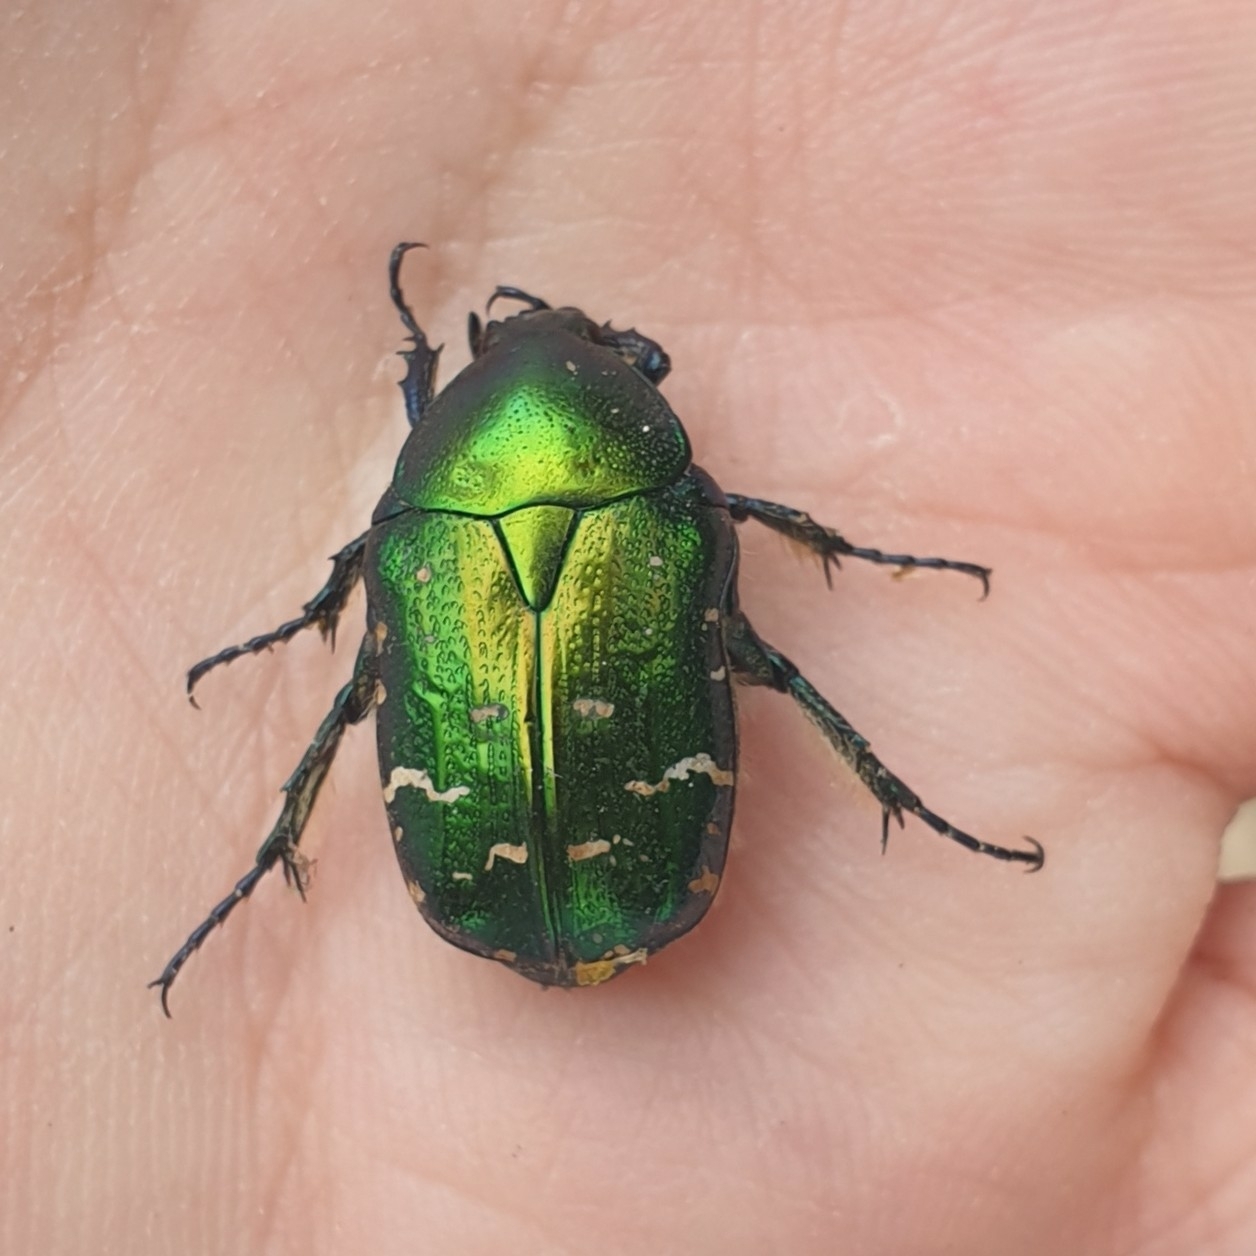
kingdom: Animalia
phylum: Arthropoda
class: Insecta
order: Coleoptera
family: Scarabaeidae
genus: Cetonia
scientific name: Cetonia aurata
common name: Rose chafer
